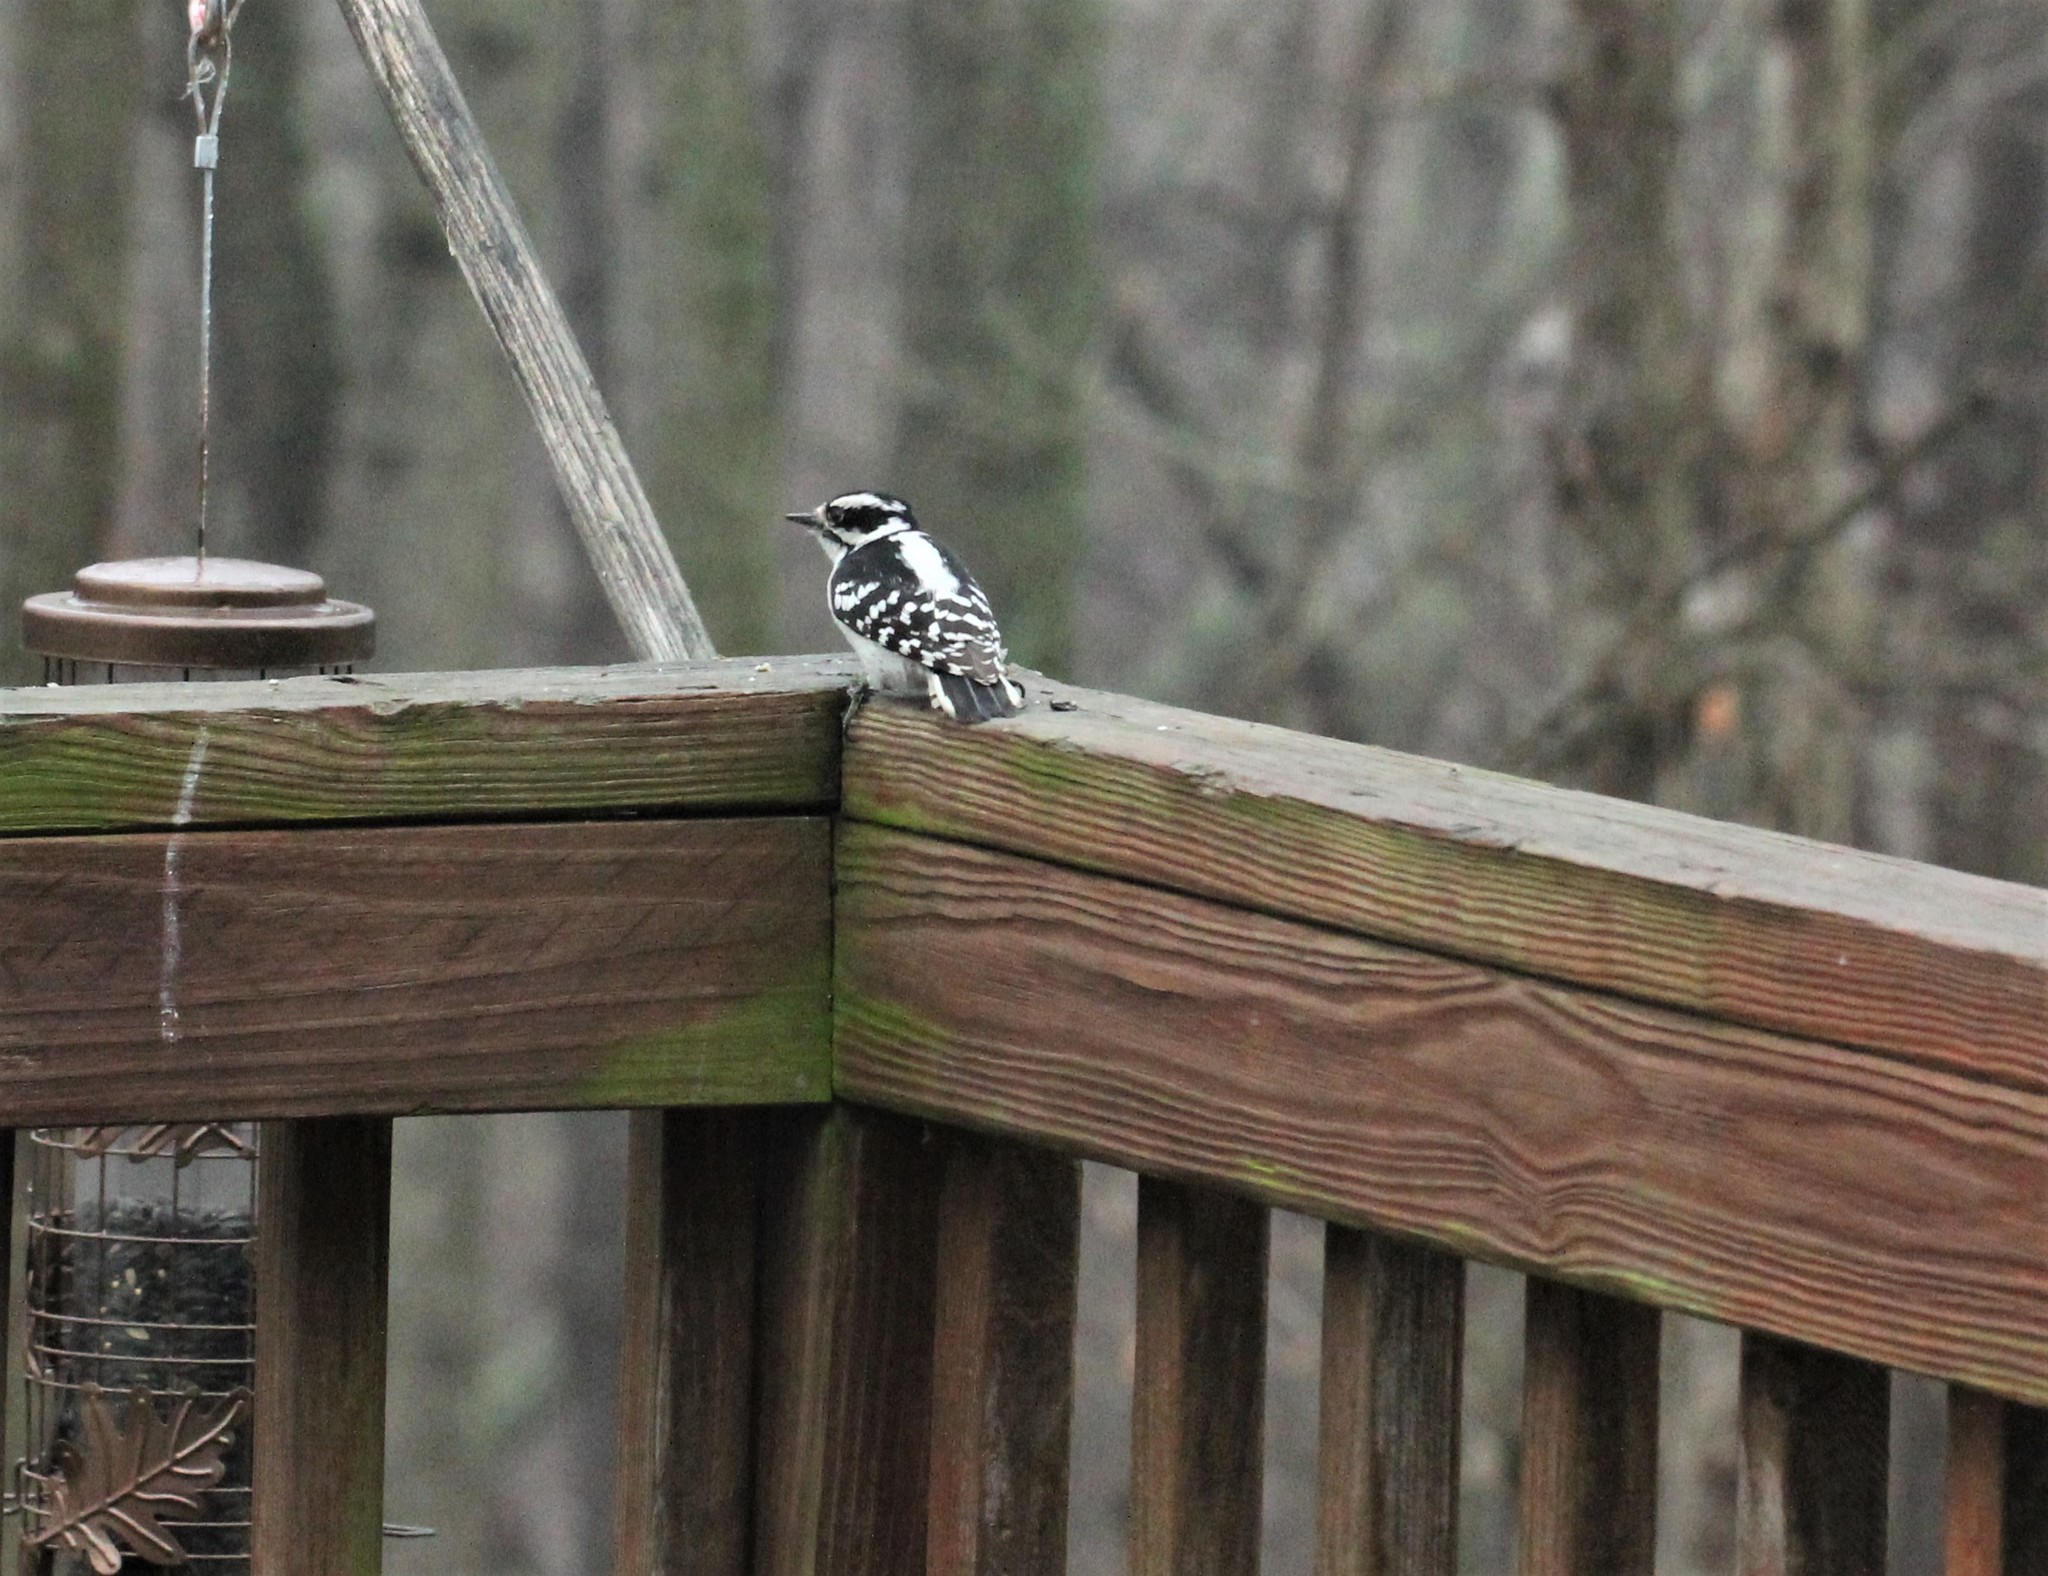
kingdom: Animalia
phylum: Chordata
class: Aves
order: Piciformes
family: Picidae
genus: Dryobates
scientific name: Dryobates pubescens
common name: Downy woodpecker
